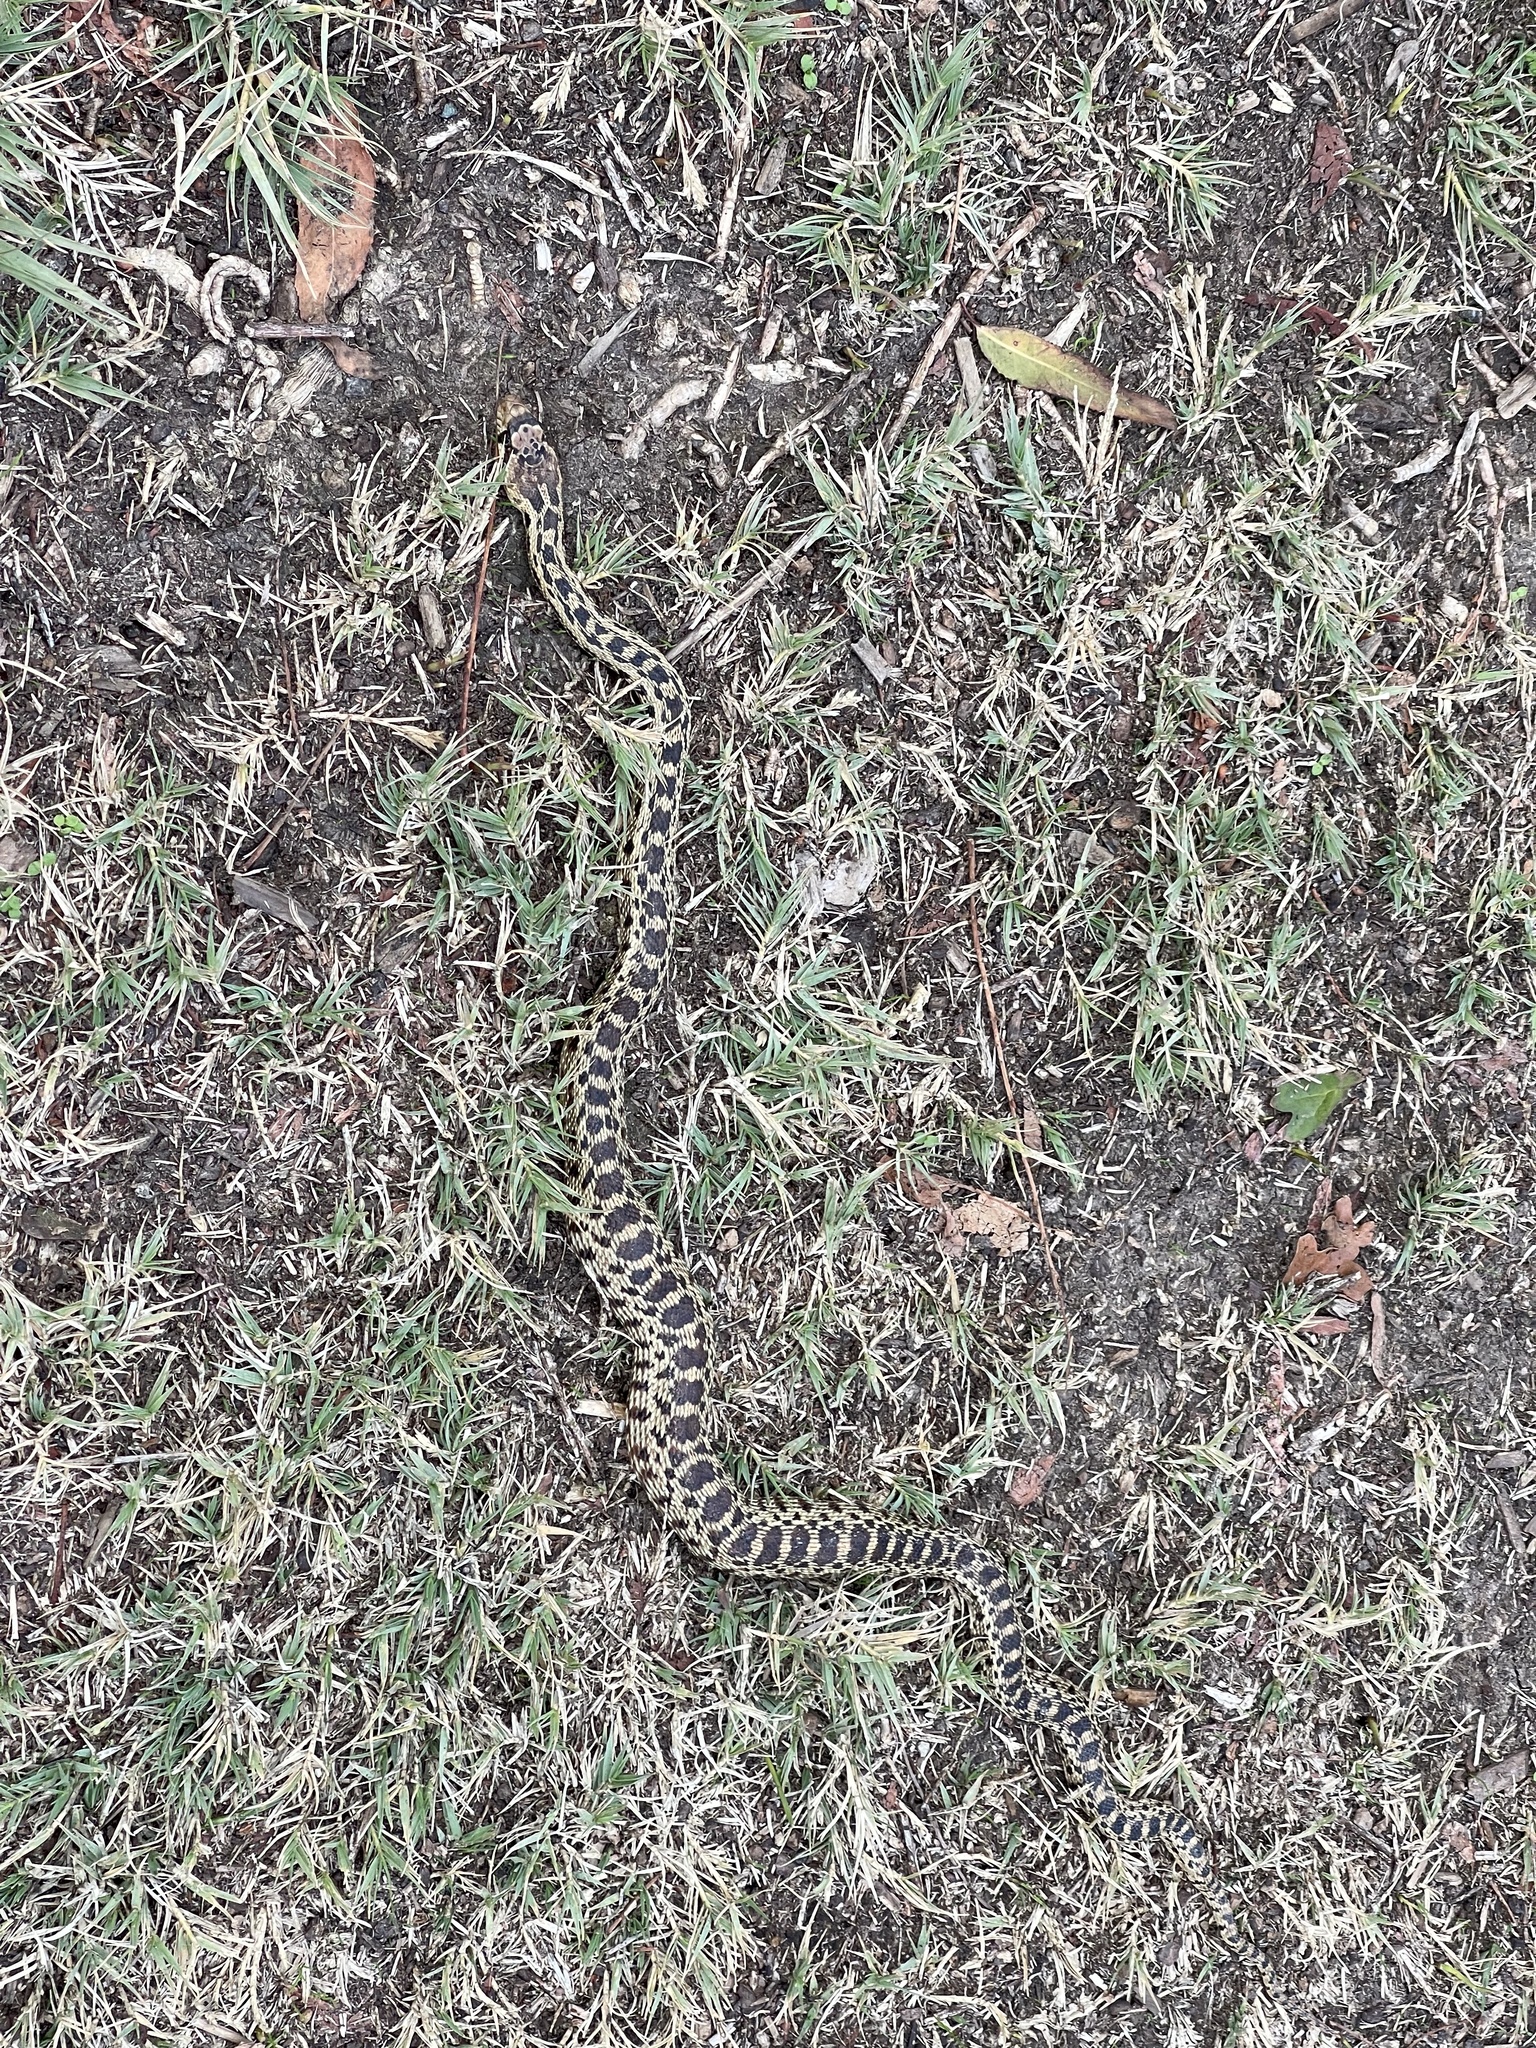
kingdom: Animalia
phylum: Chordata
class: Squamata
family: Colubridae
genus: Pituophis
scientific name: Pituophis catenifer
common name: Gopher snake
